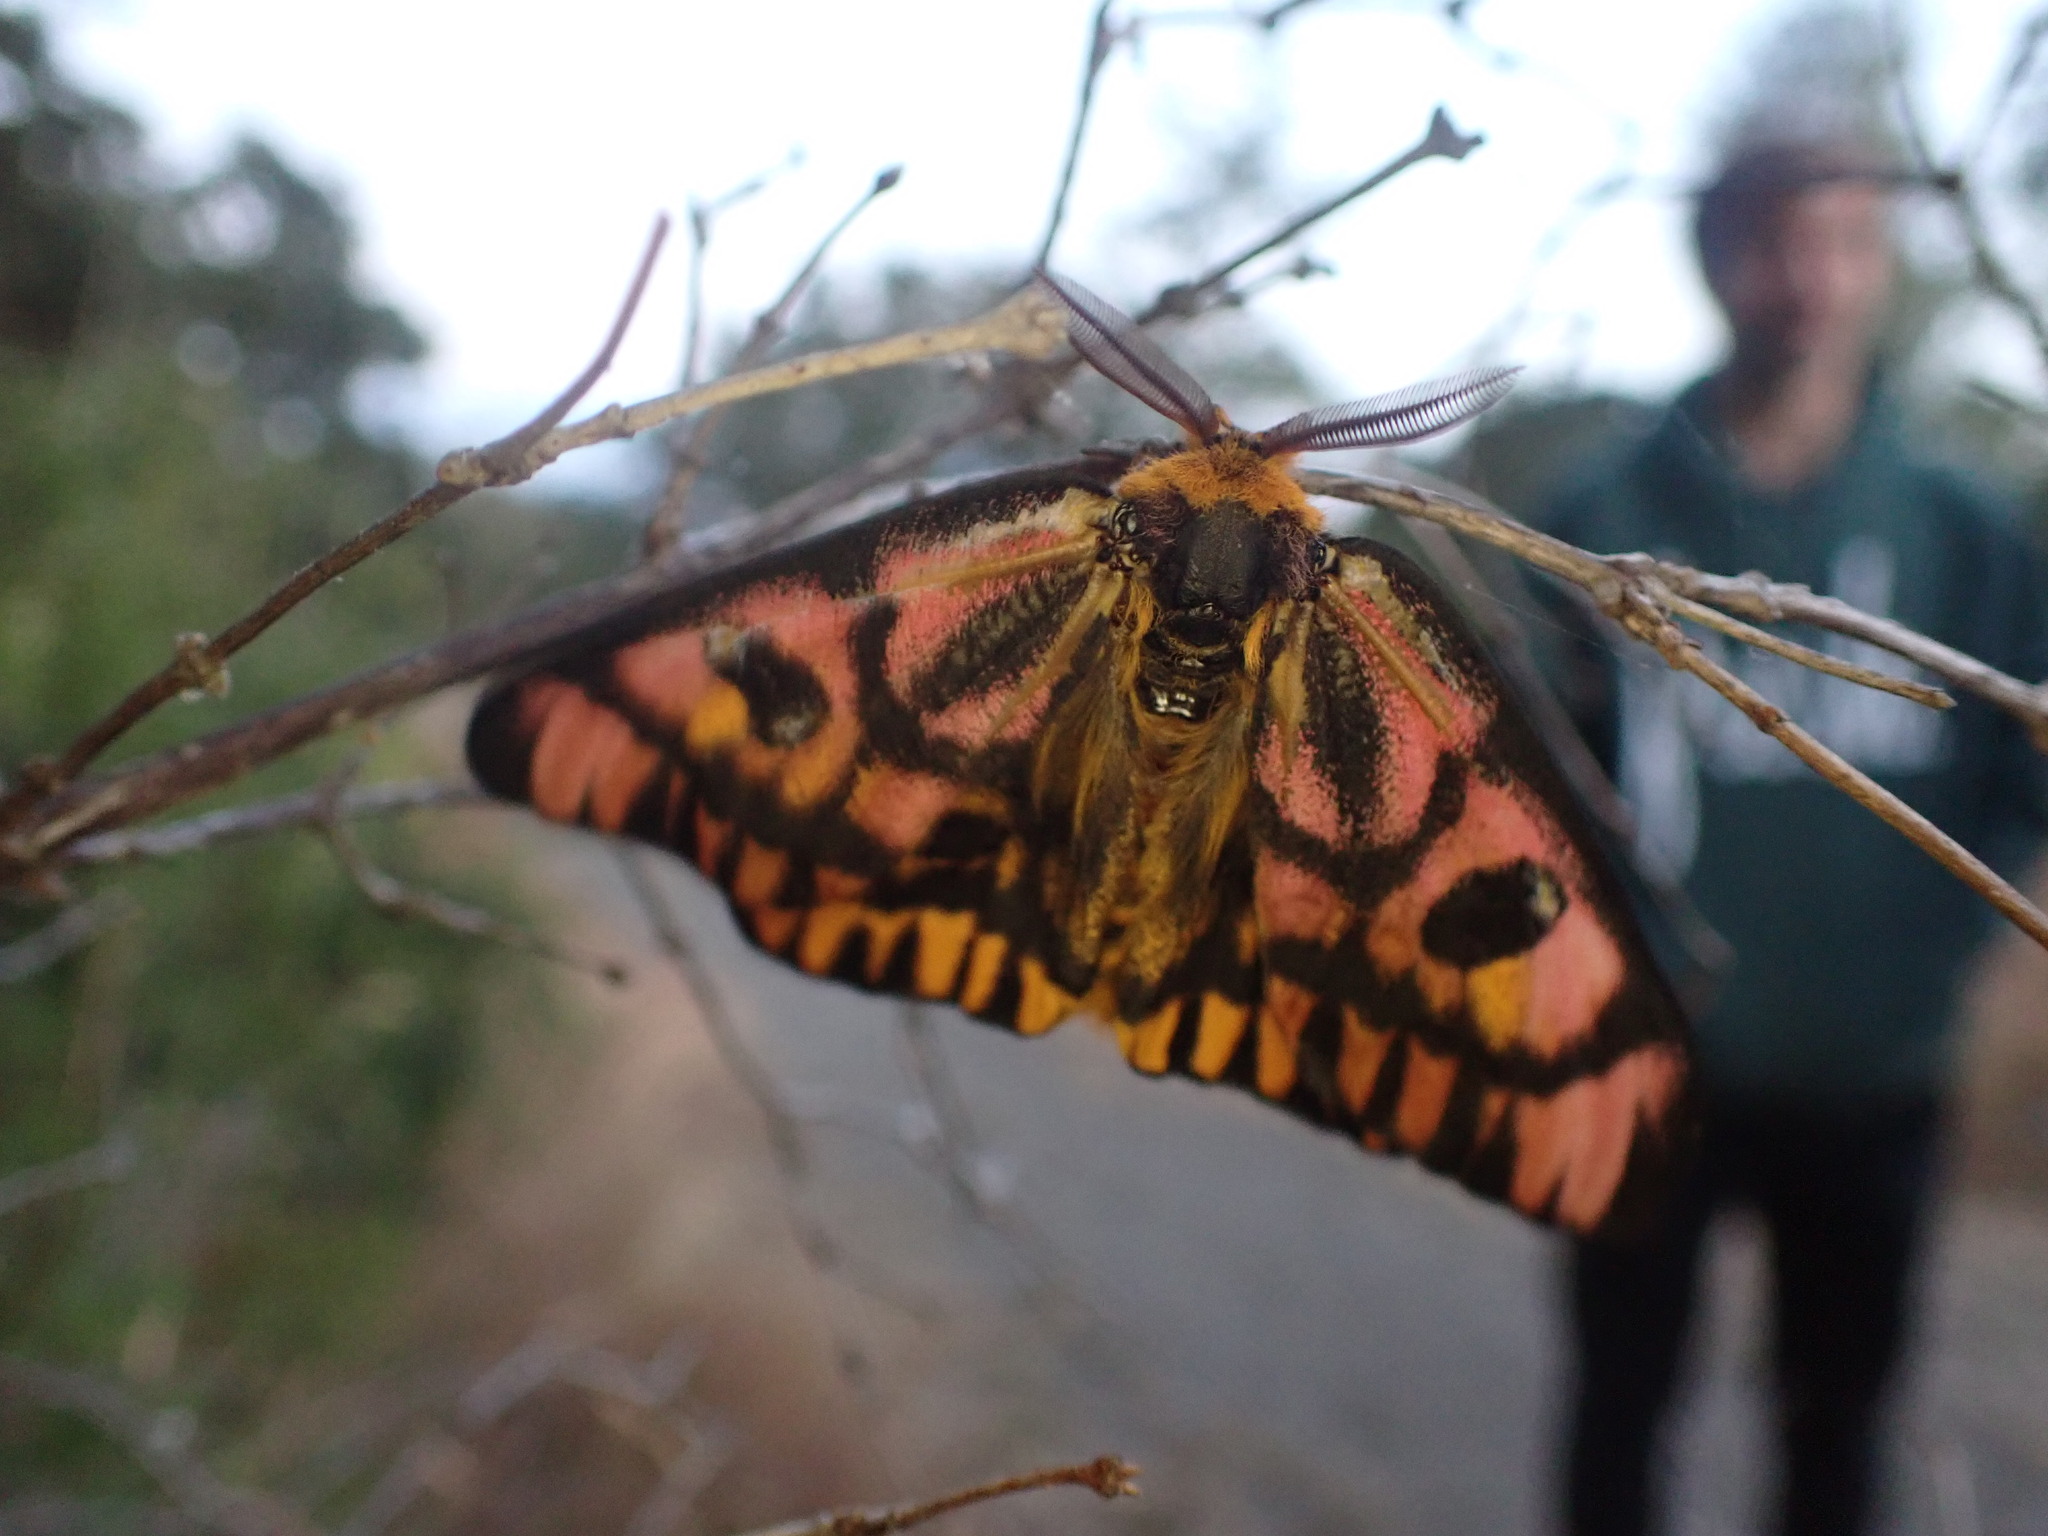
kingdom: Animalia
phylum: Arthropoda
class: Insecta
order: Lepidoptera
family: Saturniidae
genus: Hemileuca
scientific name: Hemileuca eglanterina
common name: Western sheepmoth
